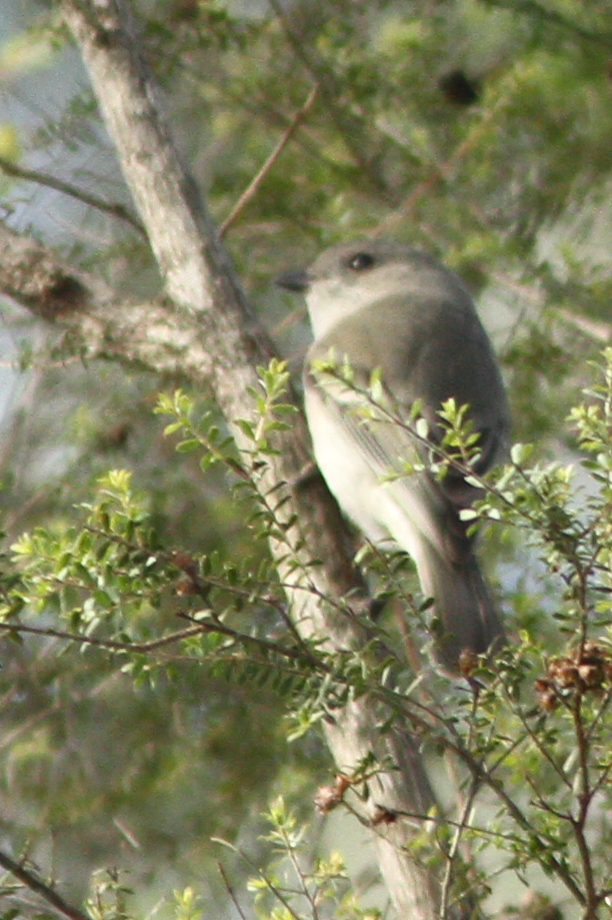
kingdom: Animalia
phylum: Chordata
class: Aves
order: Passeriformes
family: Pachycephalidae
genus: Pachycephala
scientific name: Pachycephala pectoralis
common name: Australian golden whistler
